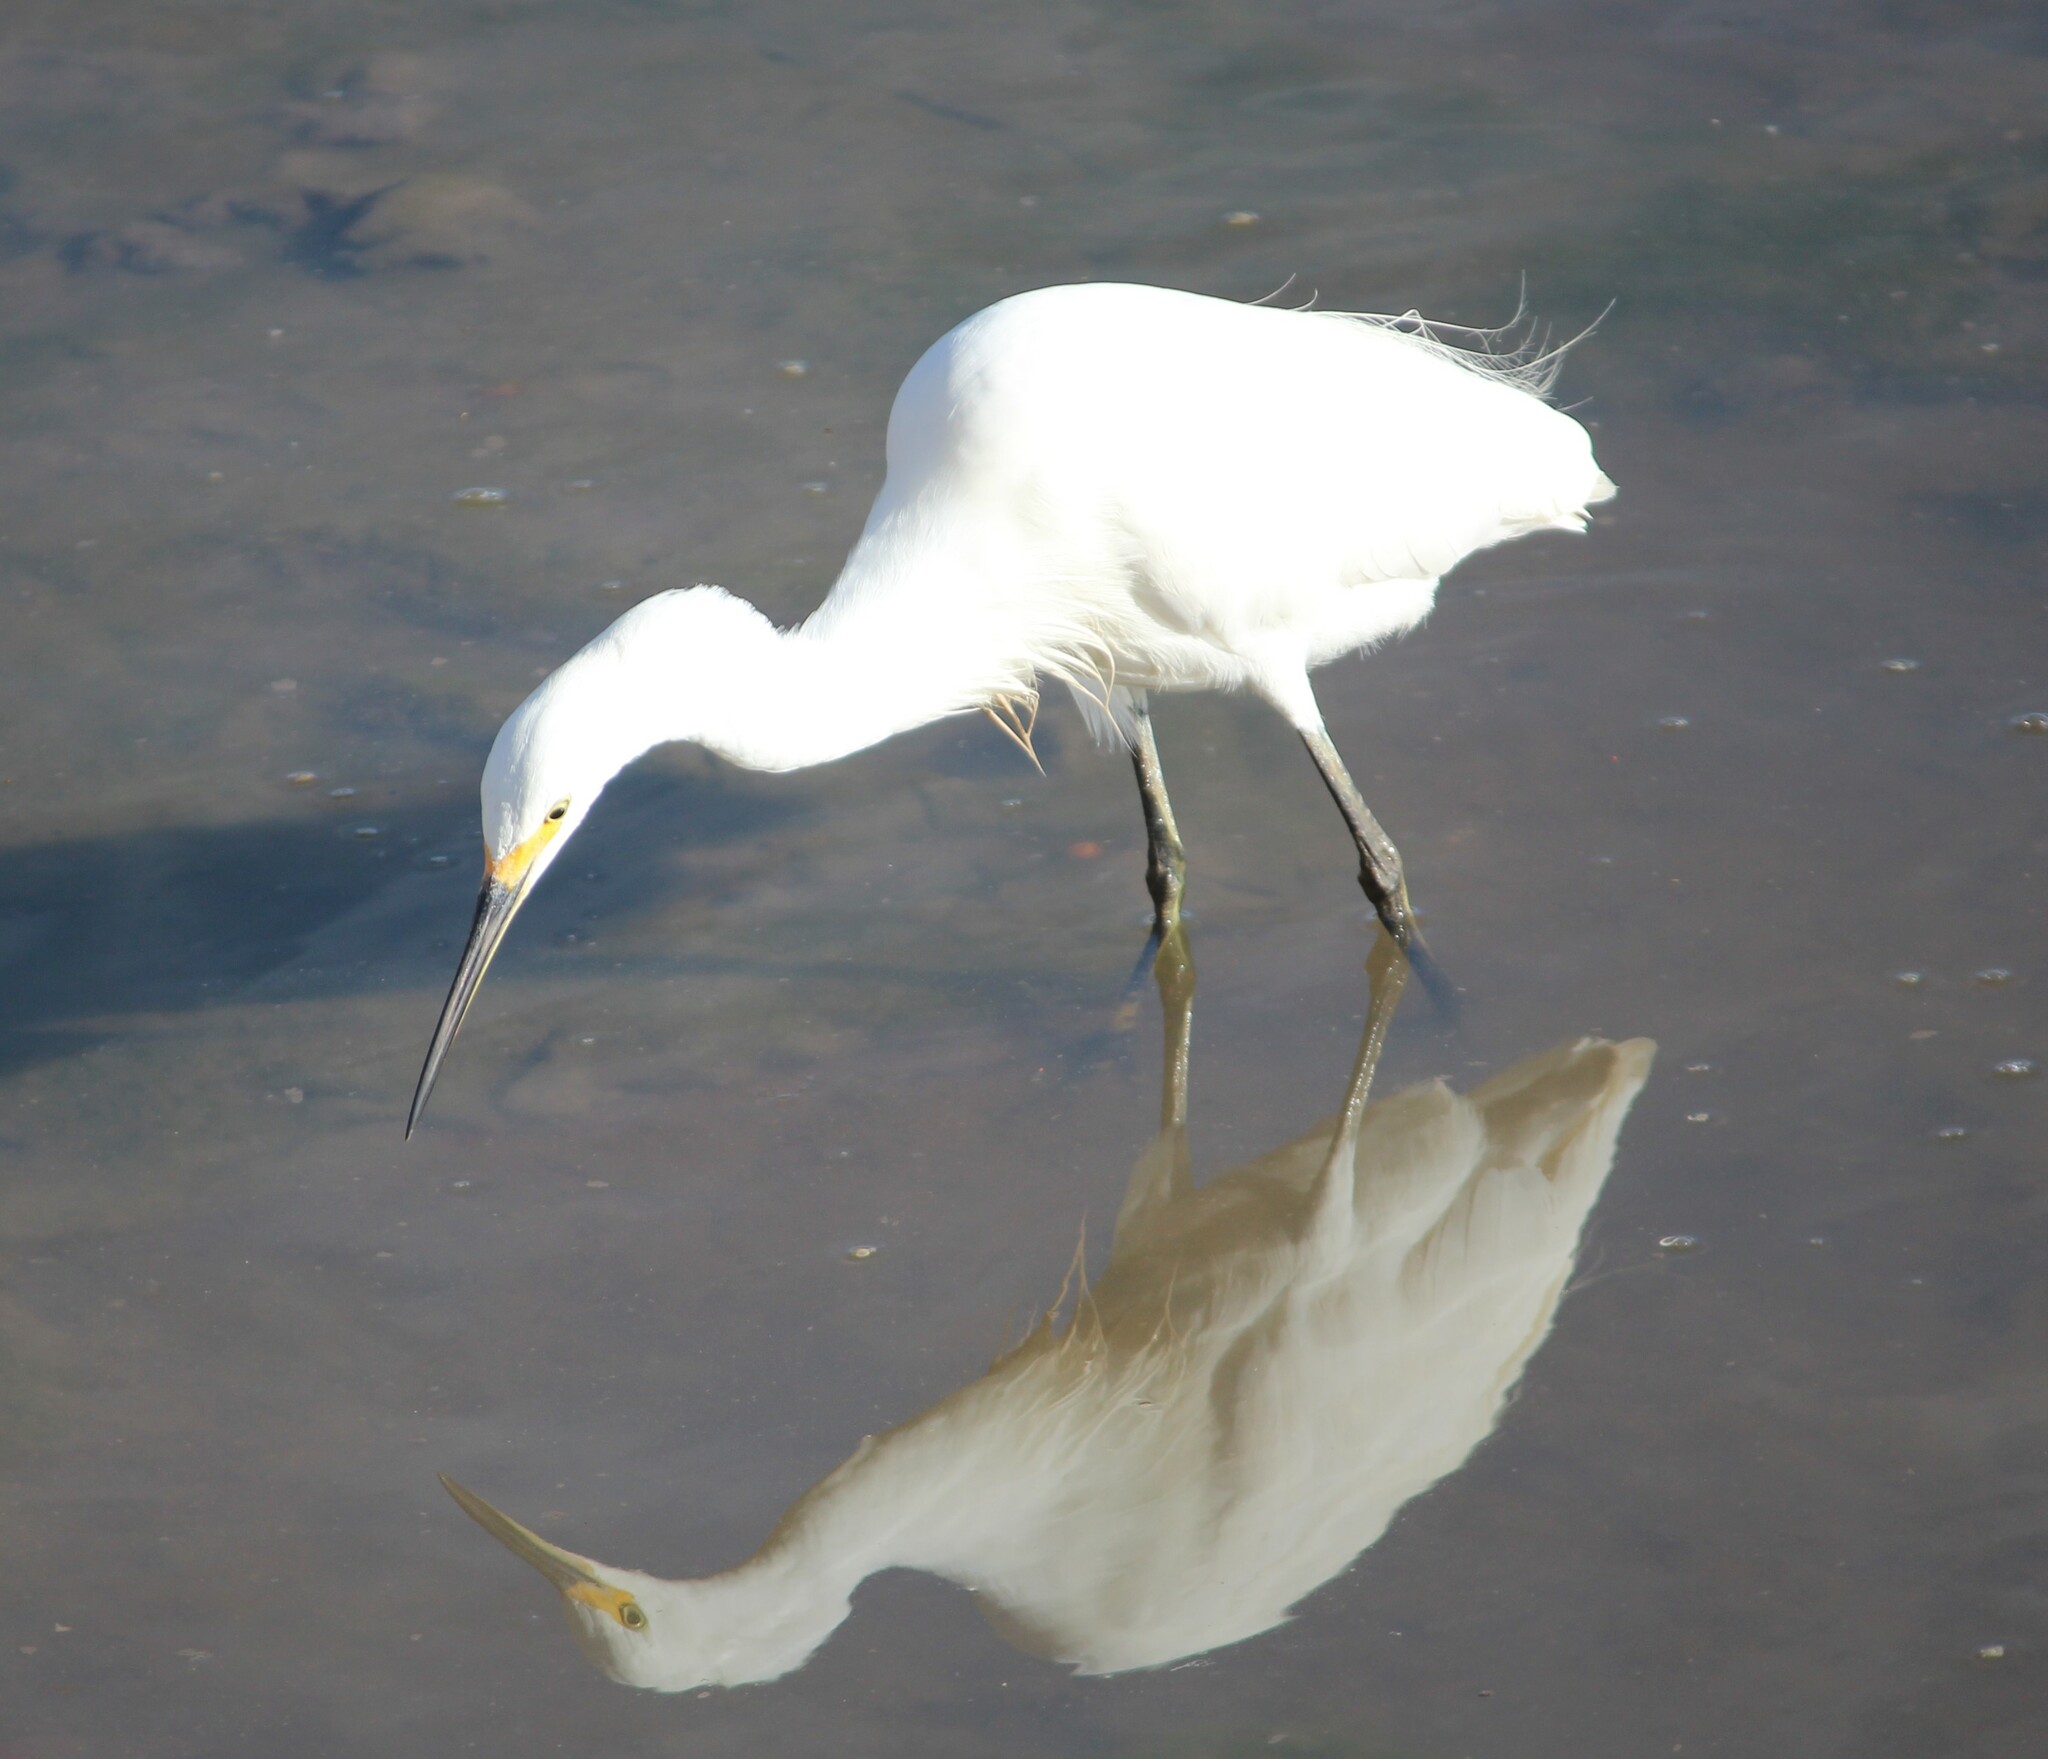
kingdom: Animalia
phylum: Chordata
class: Aves
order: Pelecaniformes
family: Ardeidae
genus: Egretta
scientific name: Egretta garzetta
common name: Little egret
